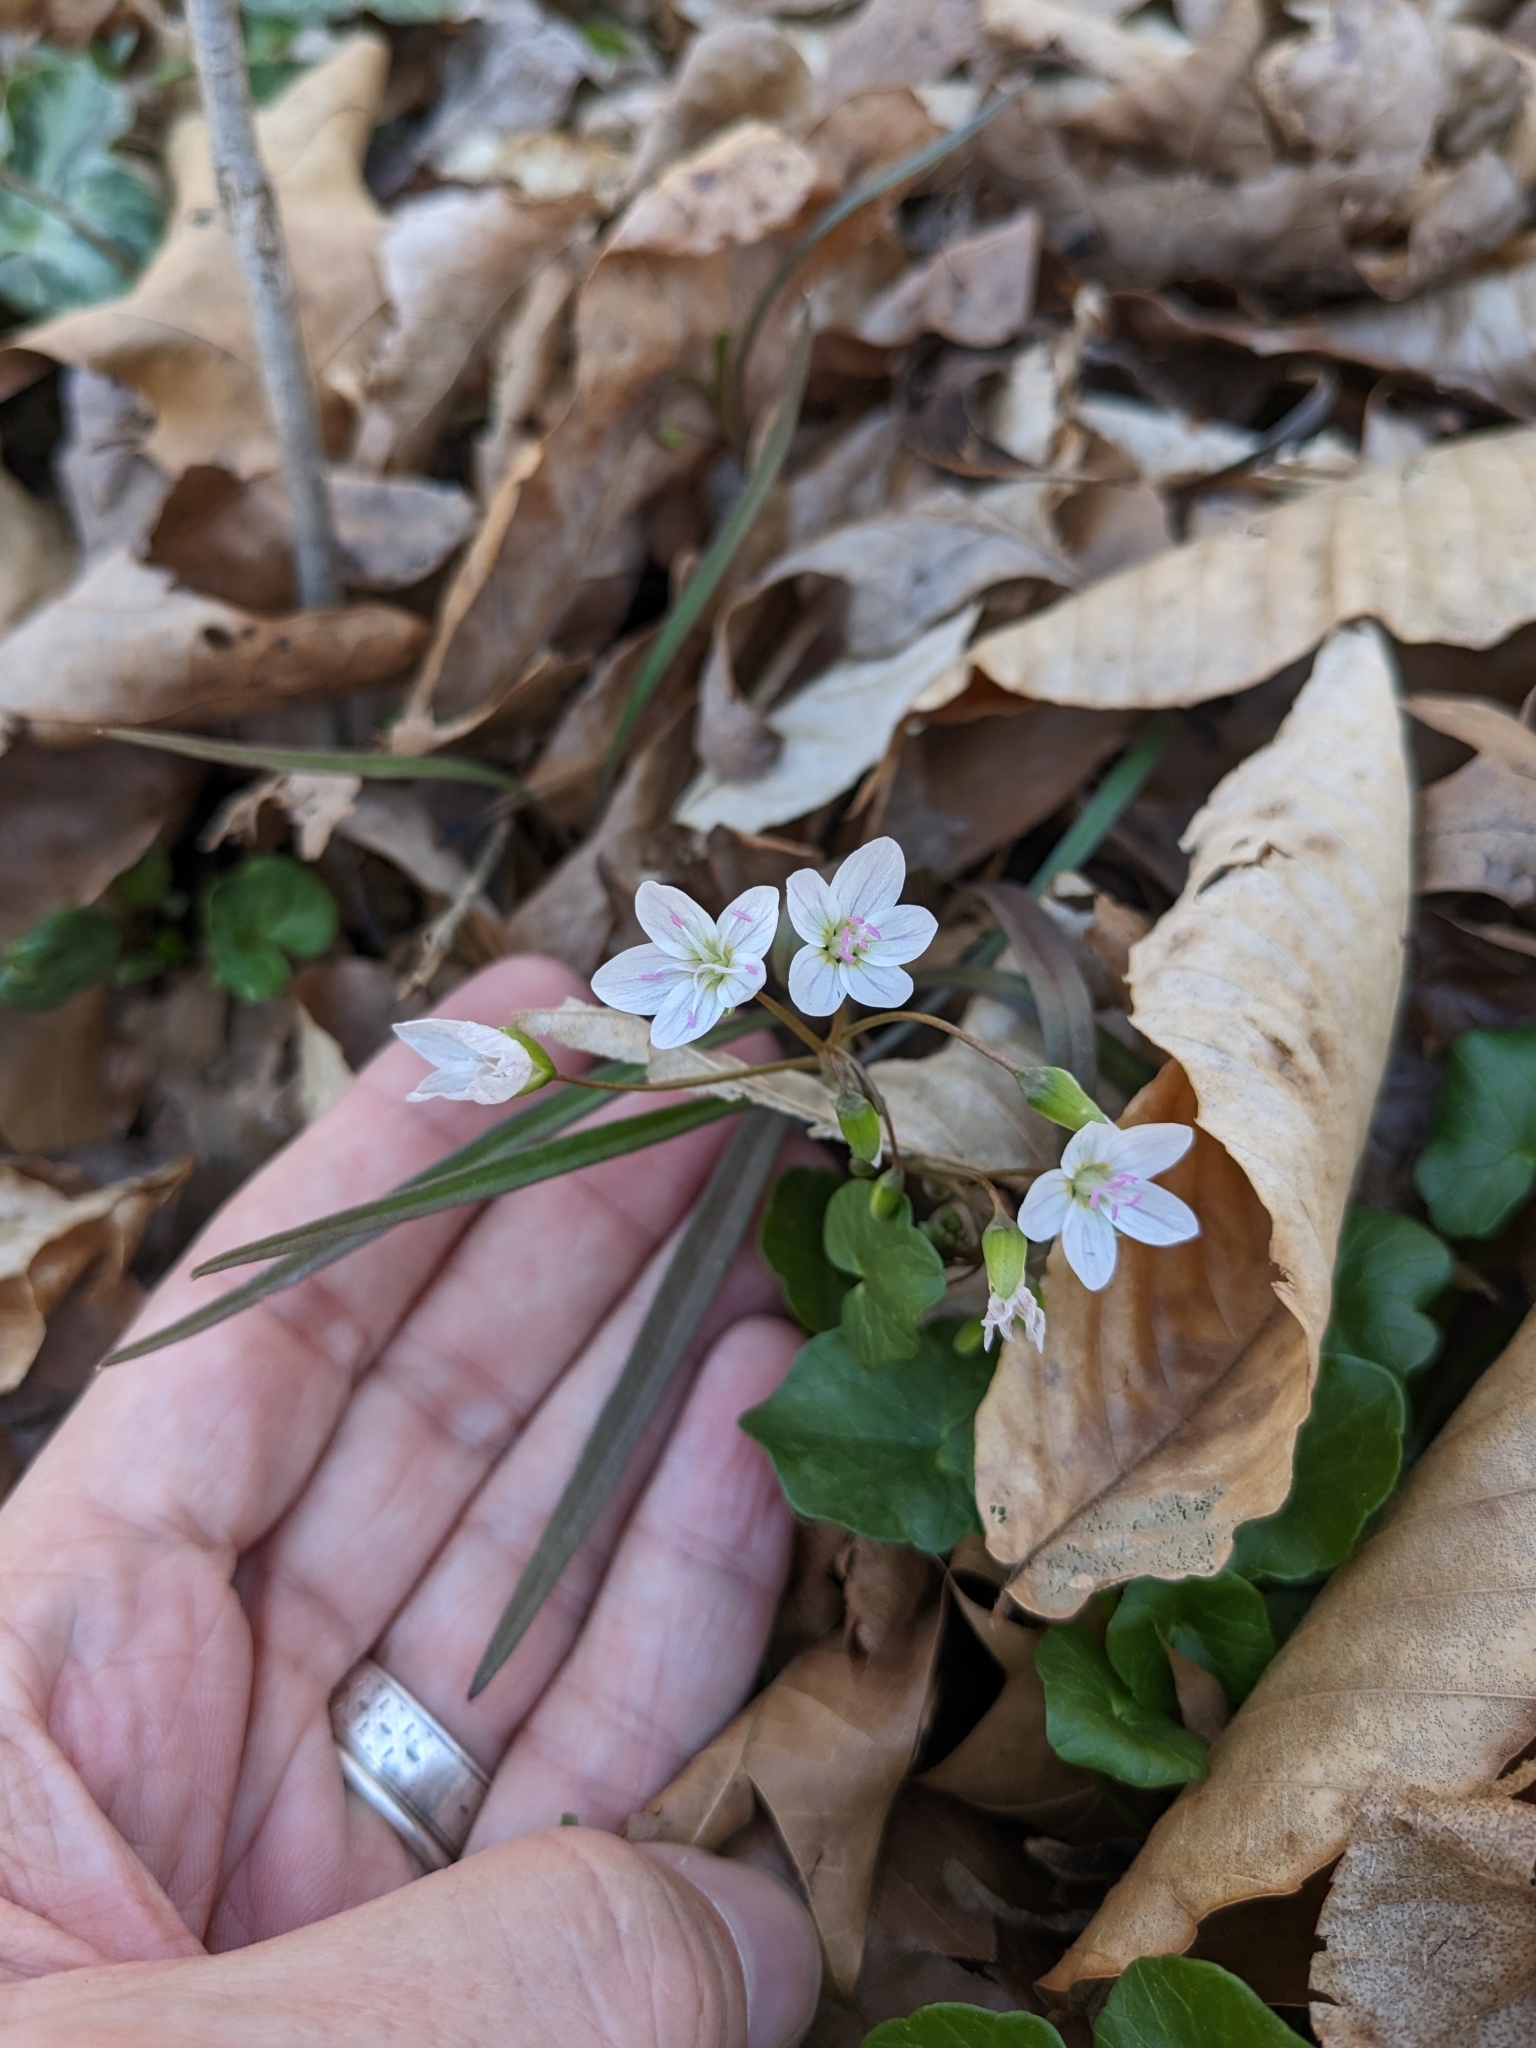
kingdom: Plantae
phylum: Tracheophyta
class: Magnoliopsida
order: Caryophyllales
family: Montiaceae
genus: Claytonia
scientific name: Claytonia virginica
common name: Virginia springbeauty
